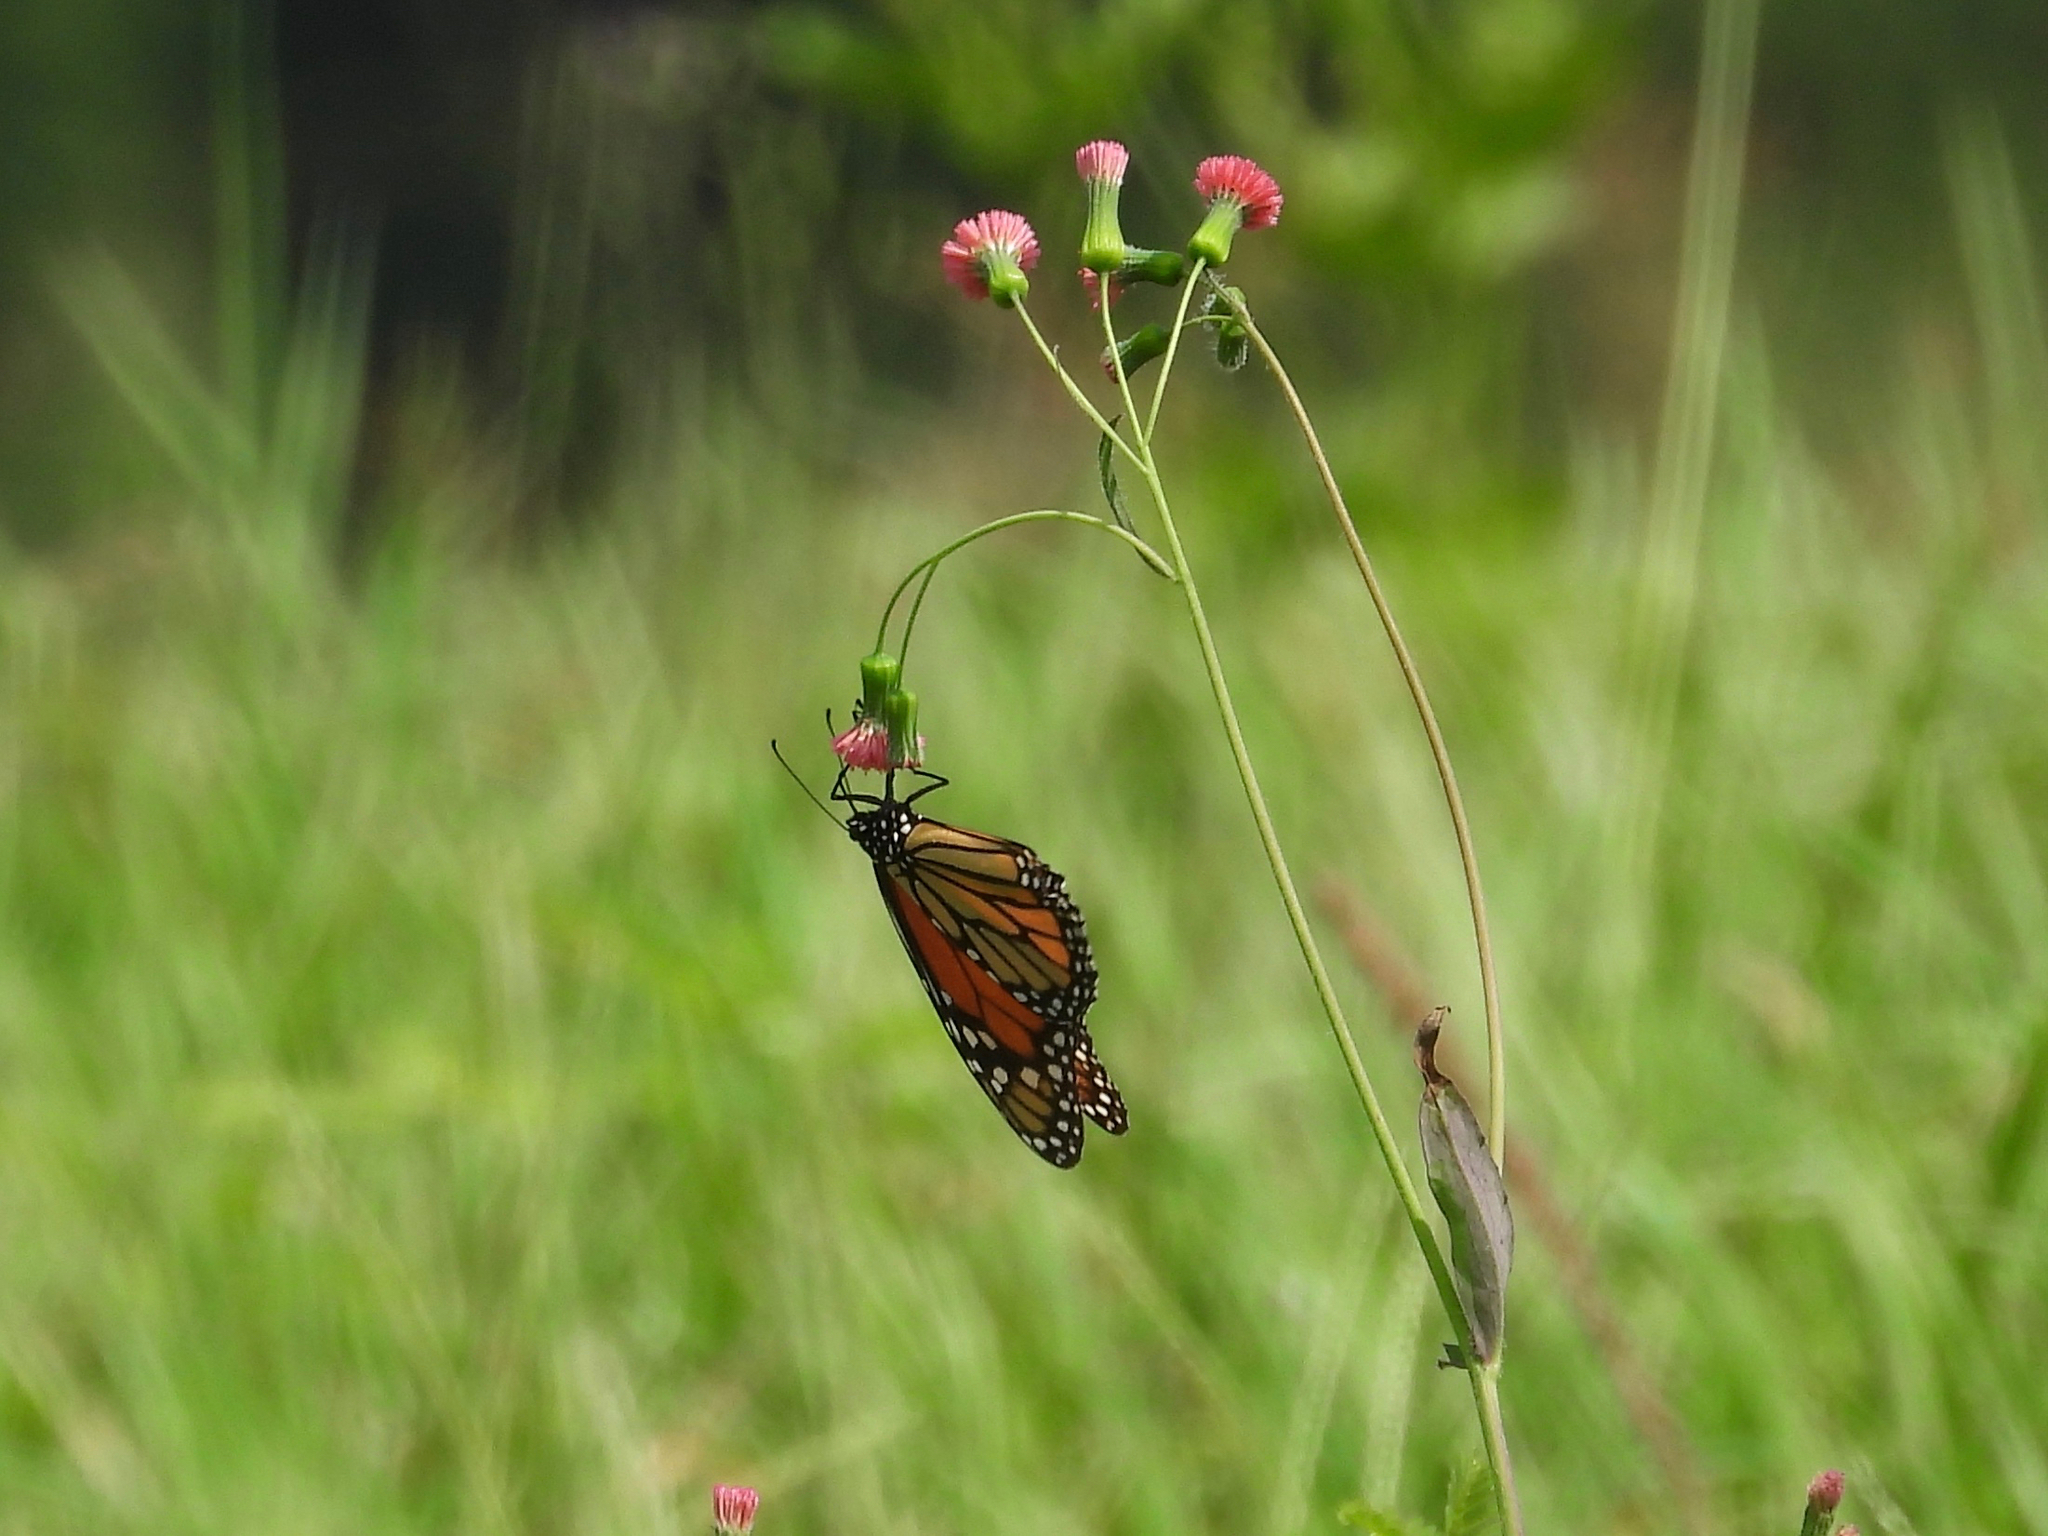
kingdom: Animalia
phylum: Arthropoda
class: Insecta
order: Lepidoptera
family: Nymphalidae
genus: Danaus
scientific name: Danaus plexippus
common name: Monarch
